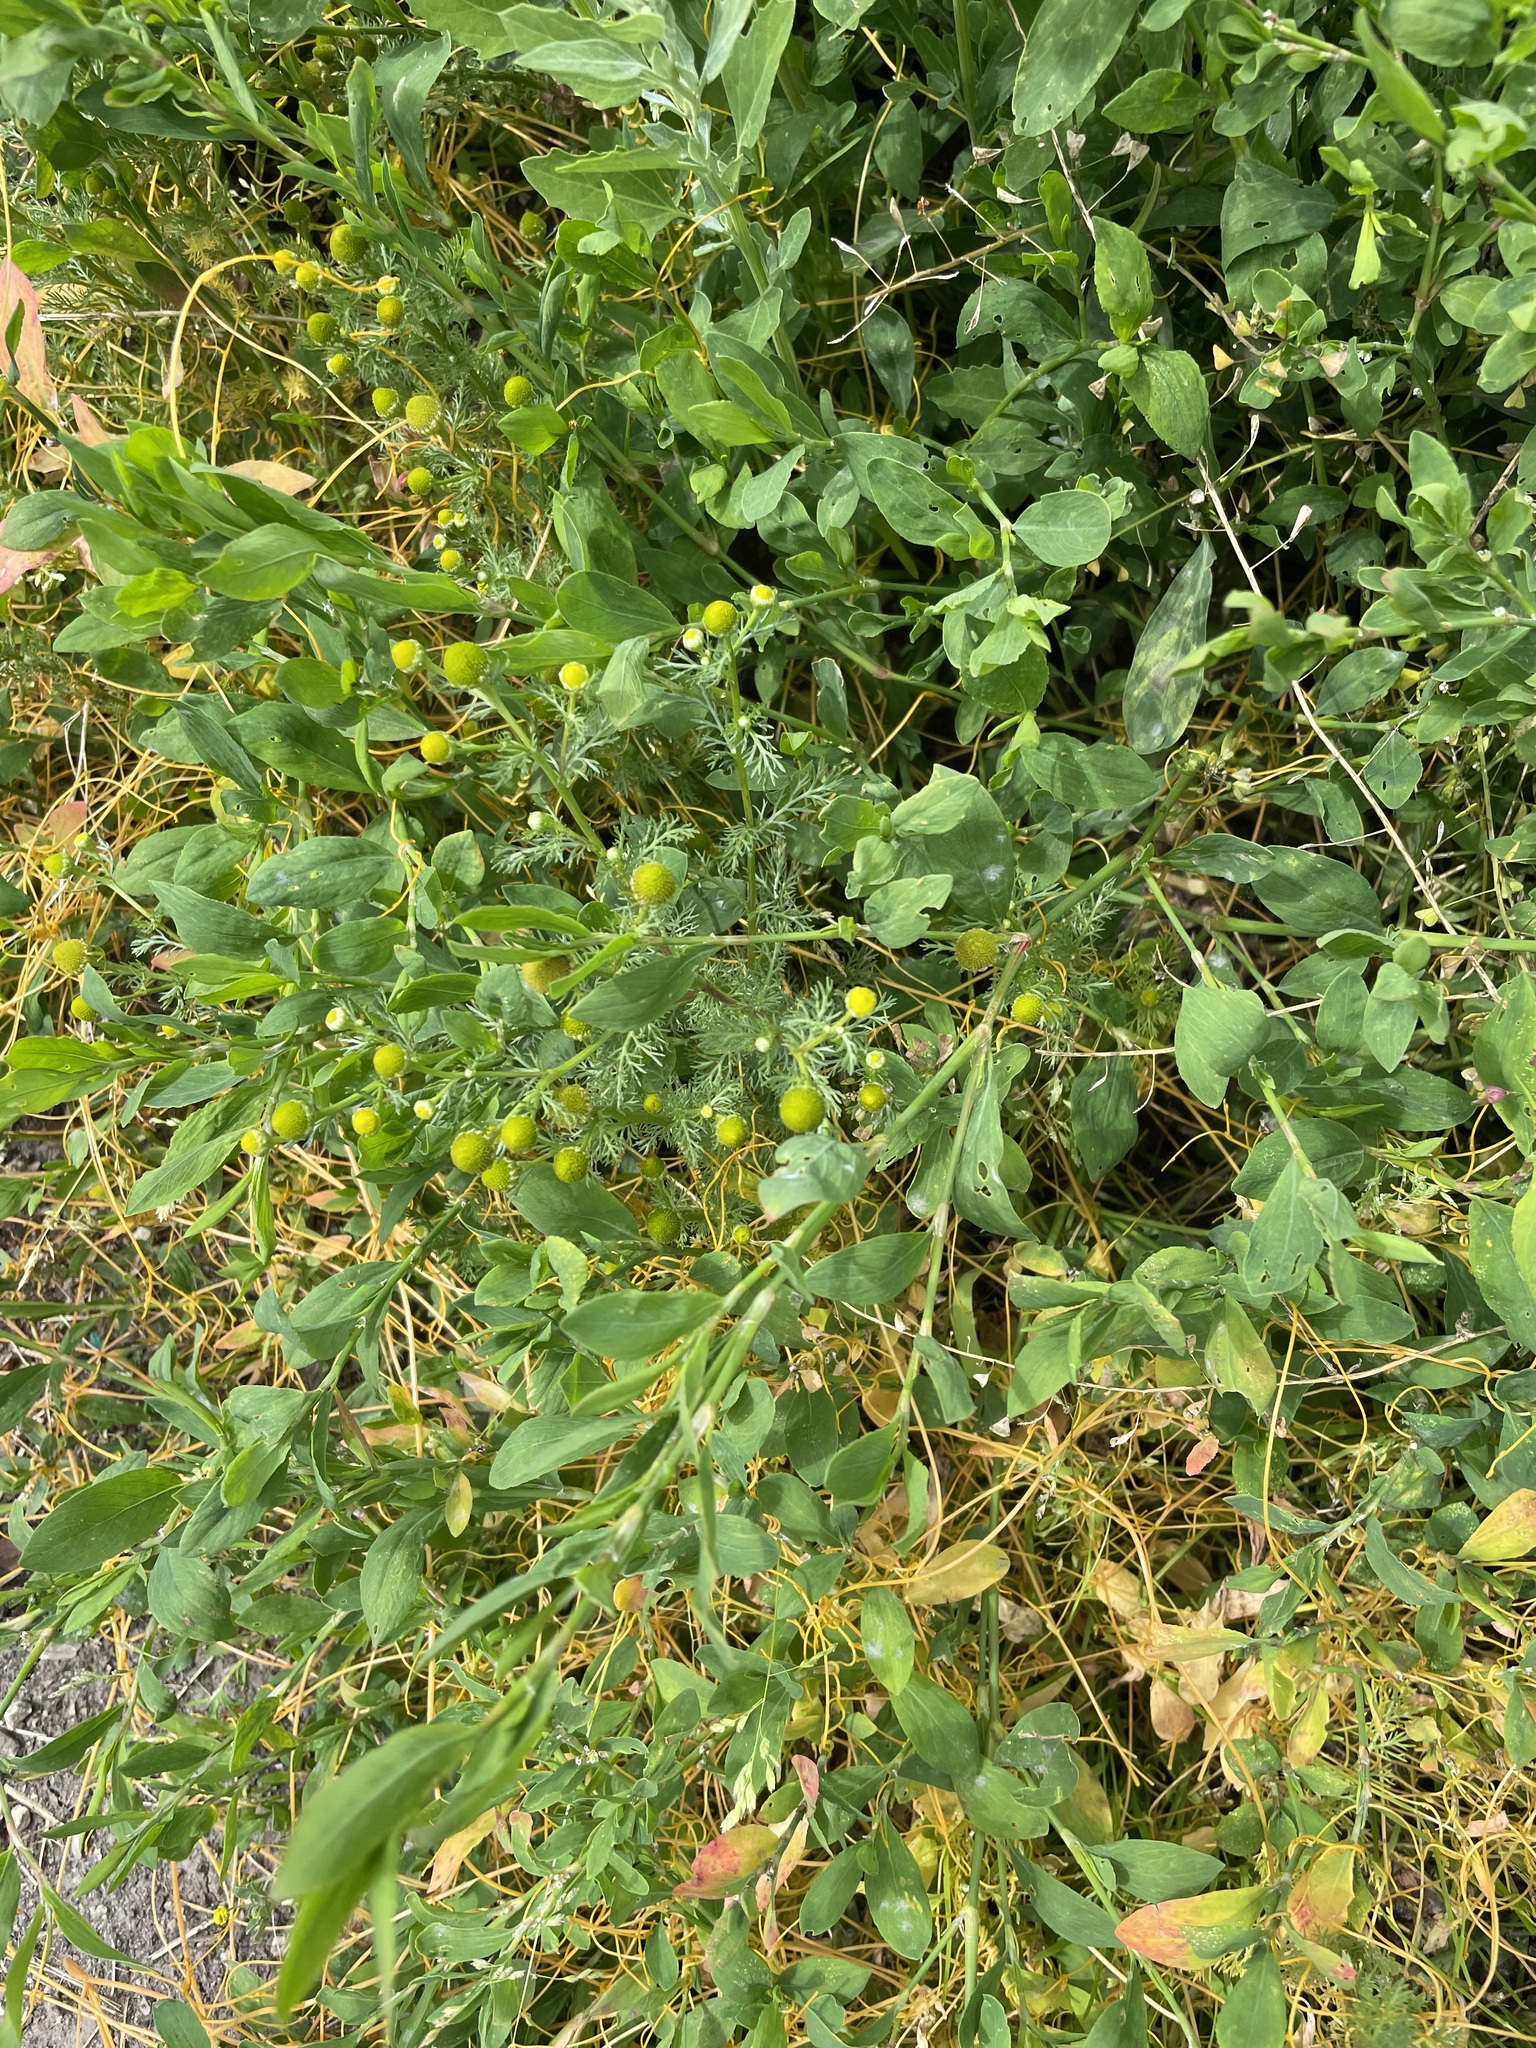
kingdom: Plantae
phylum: Tracheophyta
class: Magnoliopsida
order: Asterales
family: Asteraceae
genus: Matricaria
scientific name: Matricaria discoidea
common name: Disc mayweed
